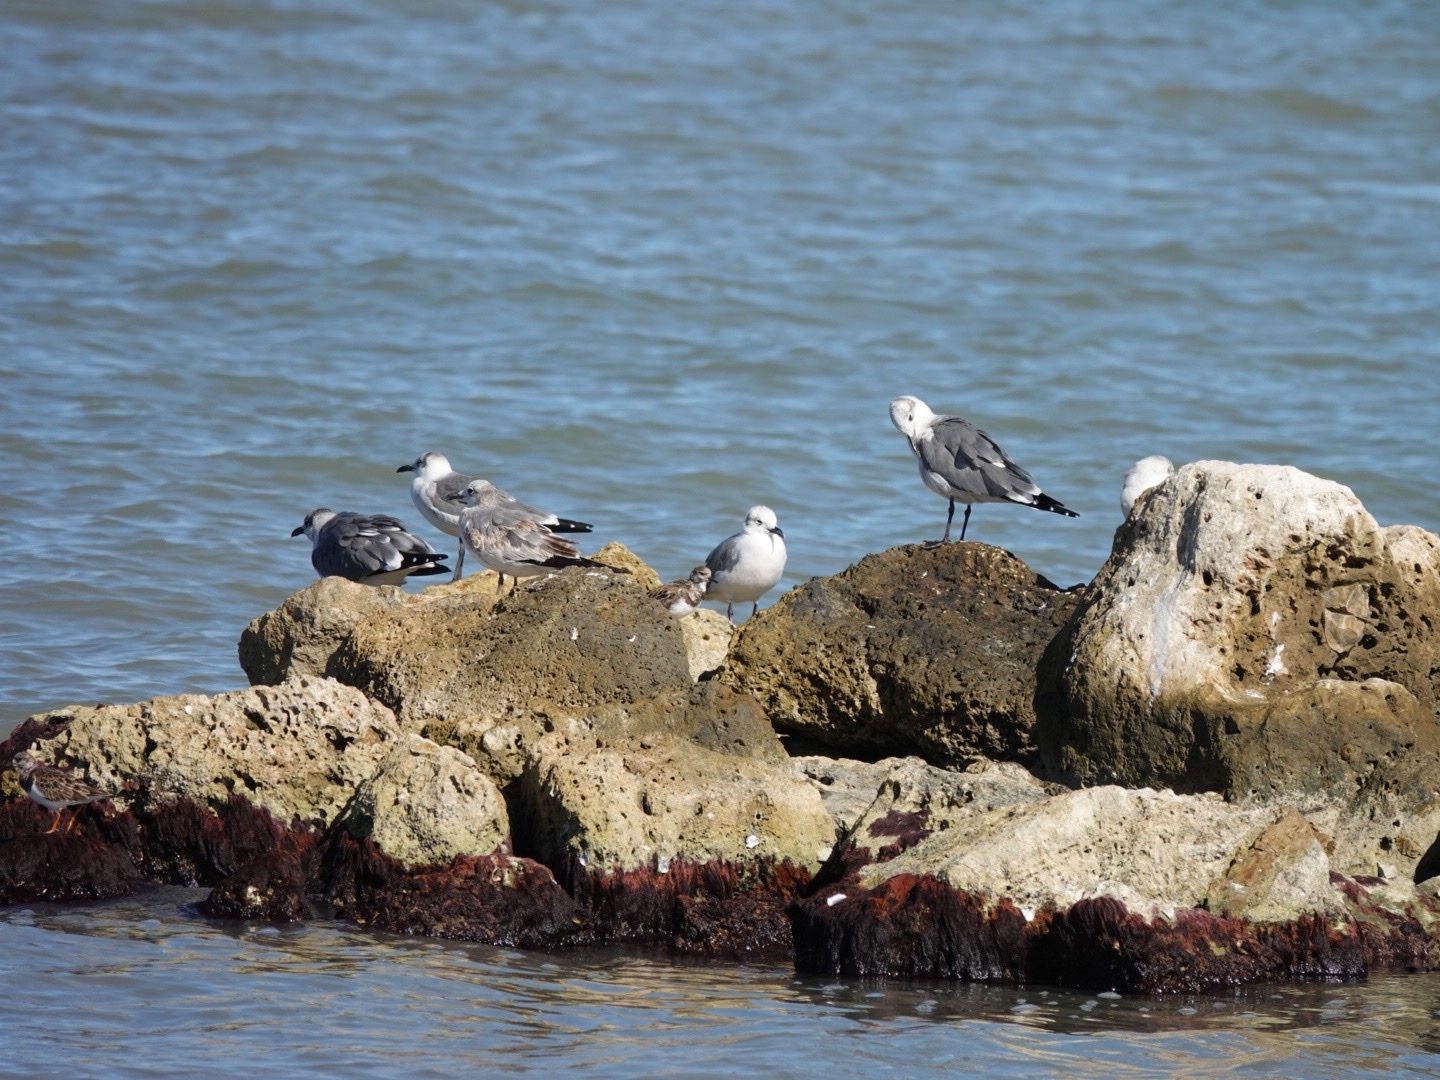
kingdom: Animalia
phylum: Chordata
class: Aves
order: Charadriiformes
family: Laridae
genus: Leucophaeus
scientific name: Leucophaeus atricilla
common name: Laughing gull
